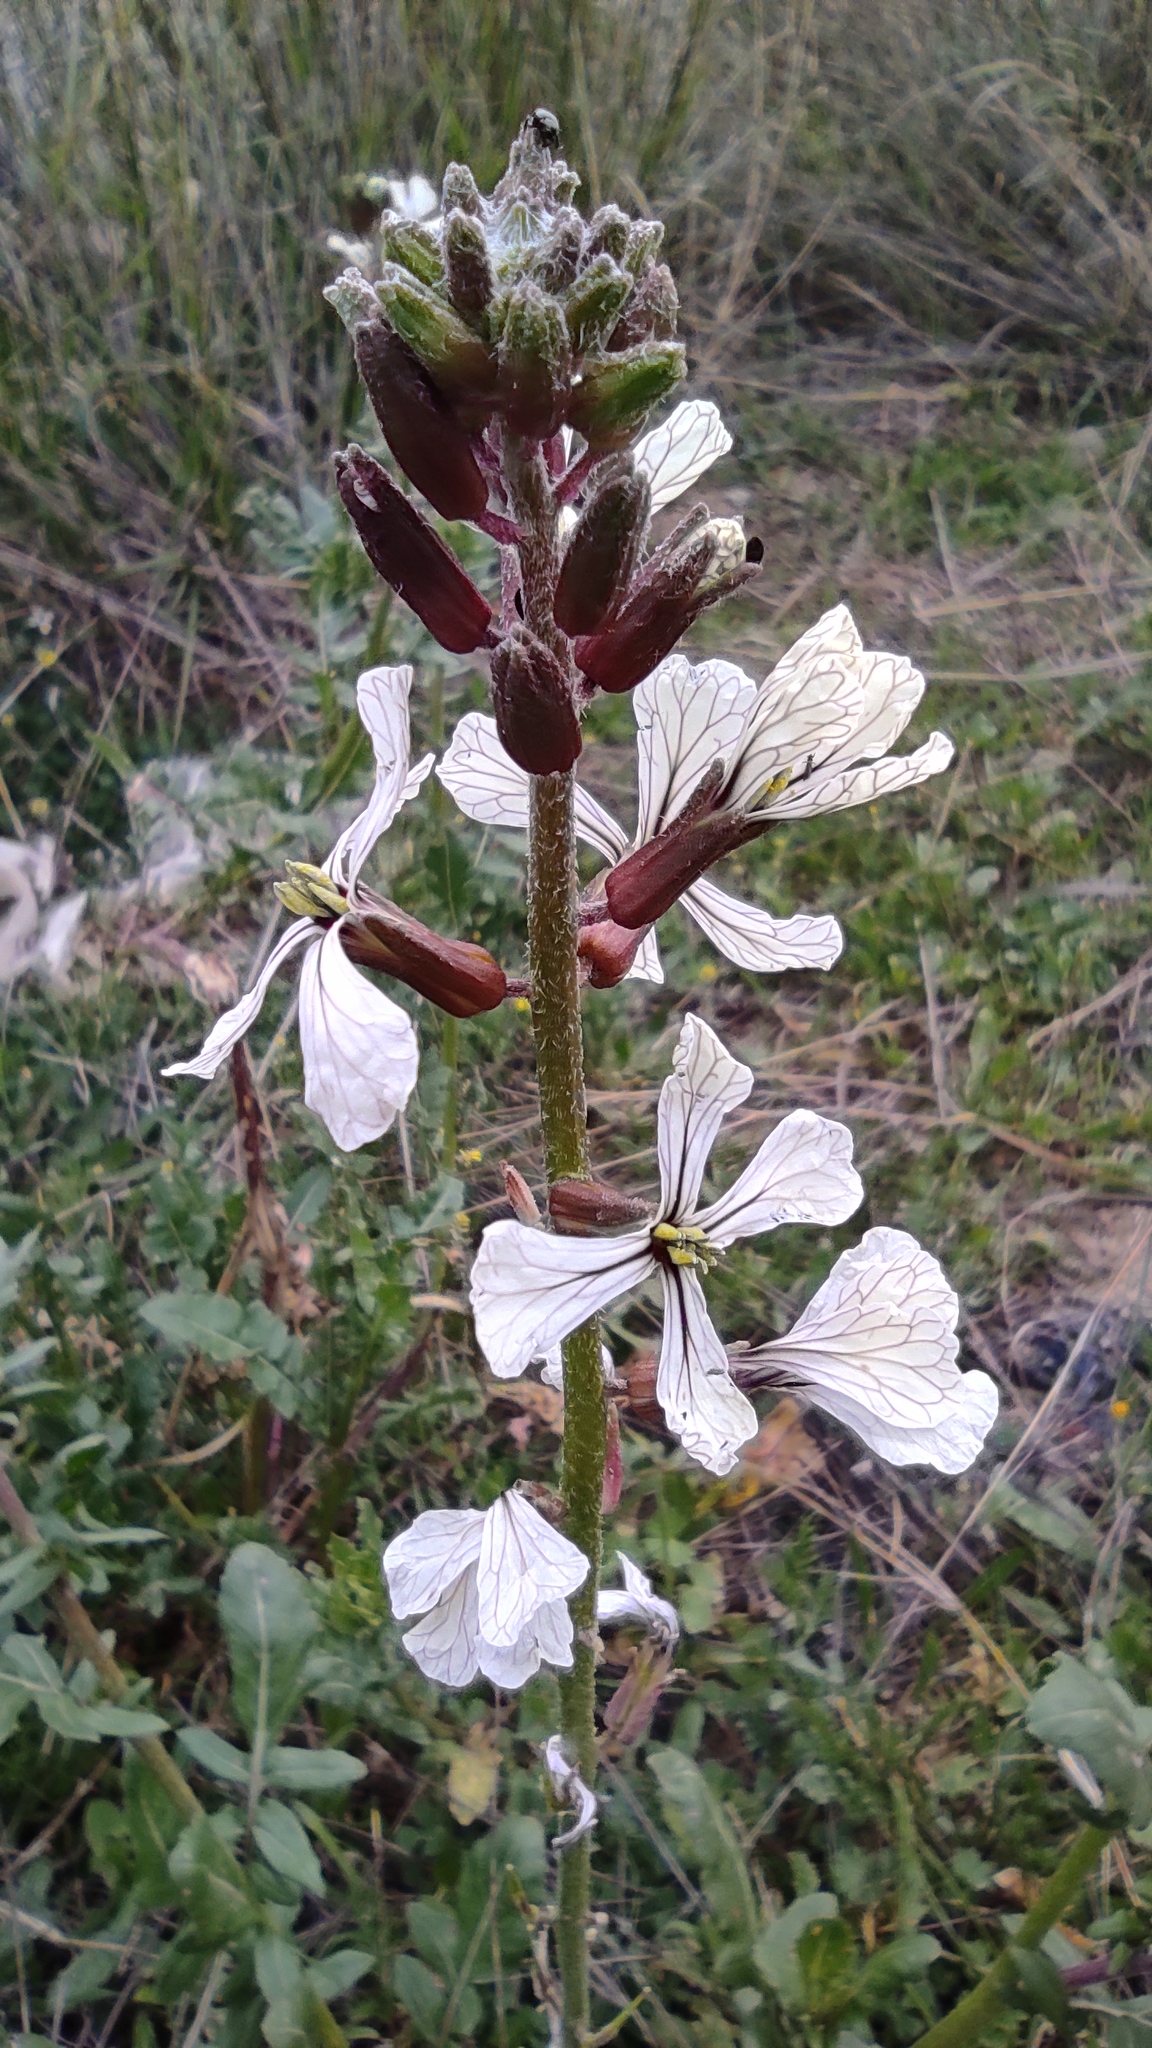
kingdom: Plantae
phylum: Tracheophyta
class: Magnoliopsida
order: Brassicales
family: Brassicaceae
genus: Eruca
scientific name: Eruca vesicaria
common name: Garden rocket
